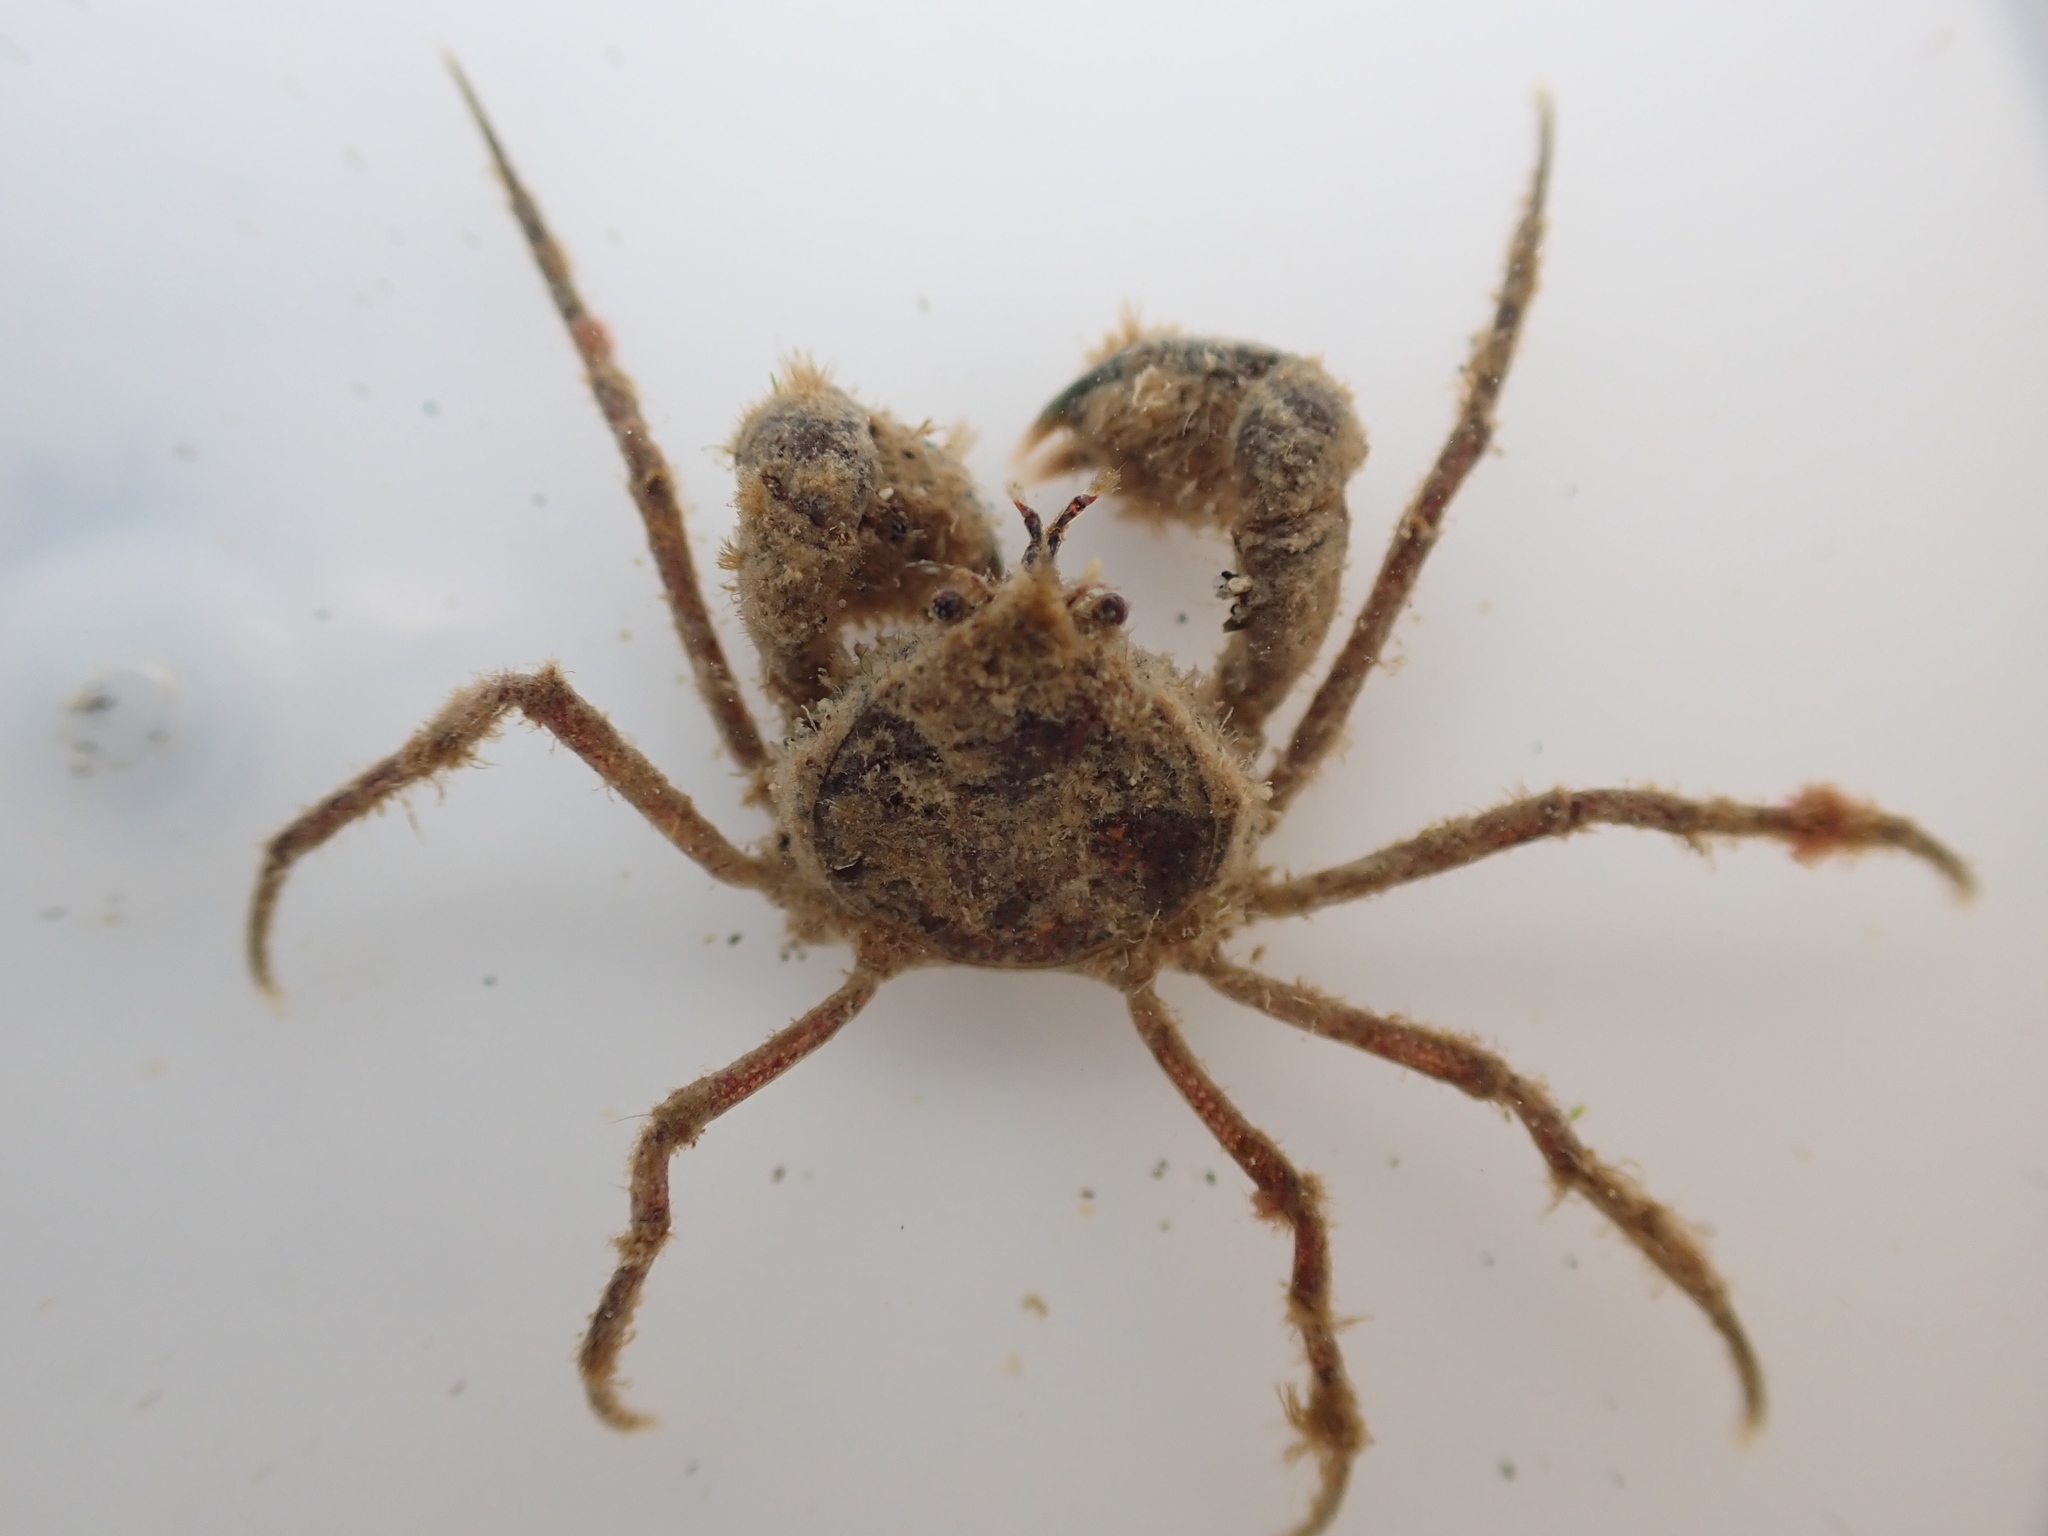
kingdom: Animalia
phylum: Arthropoda
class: Malacostraca
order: Decapoda
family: Hymenosomatidae
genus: Halicarcinus
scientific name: Halicarcinus whitei
